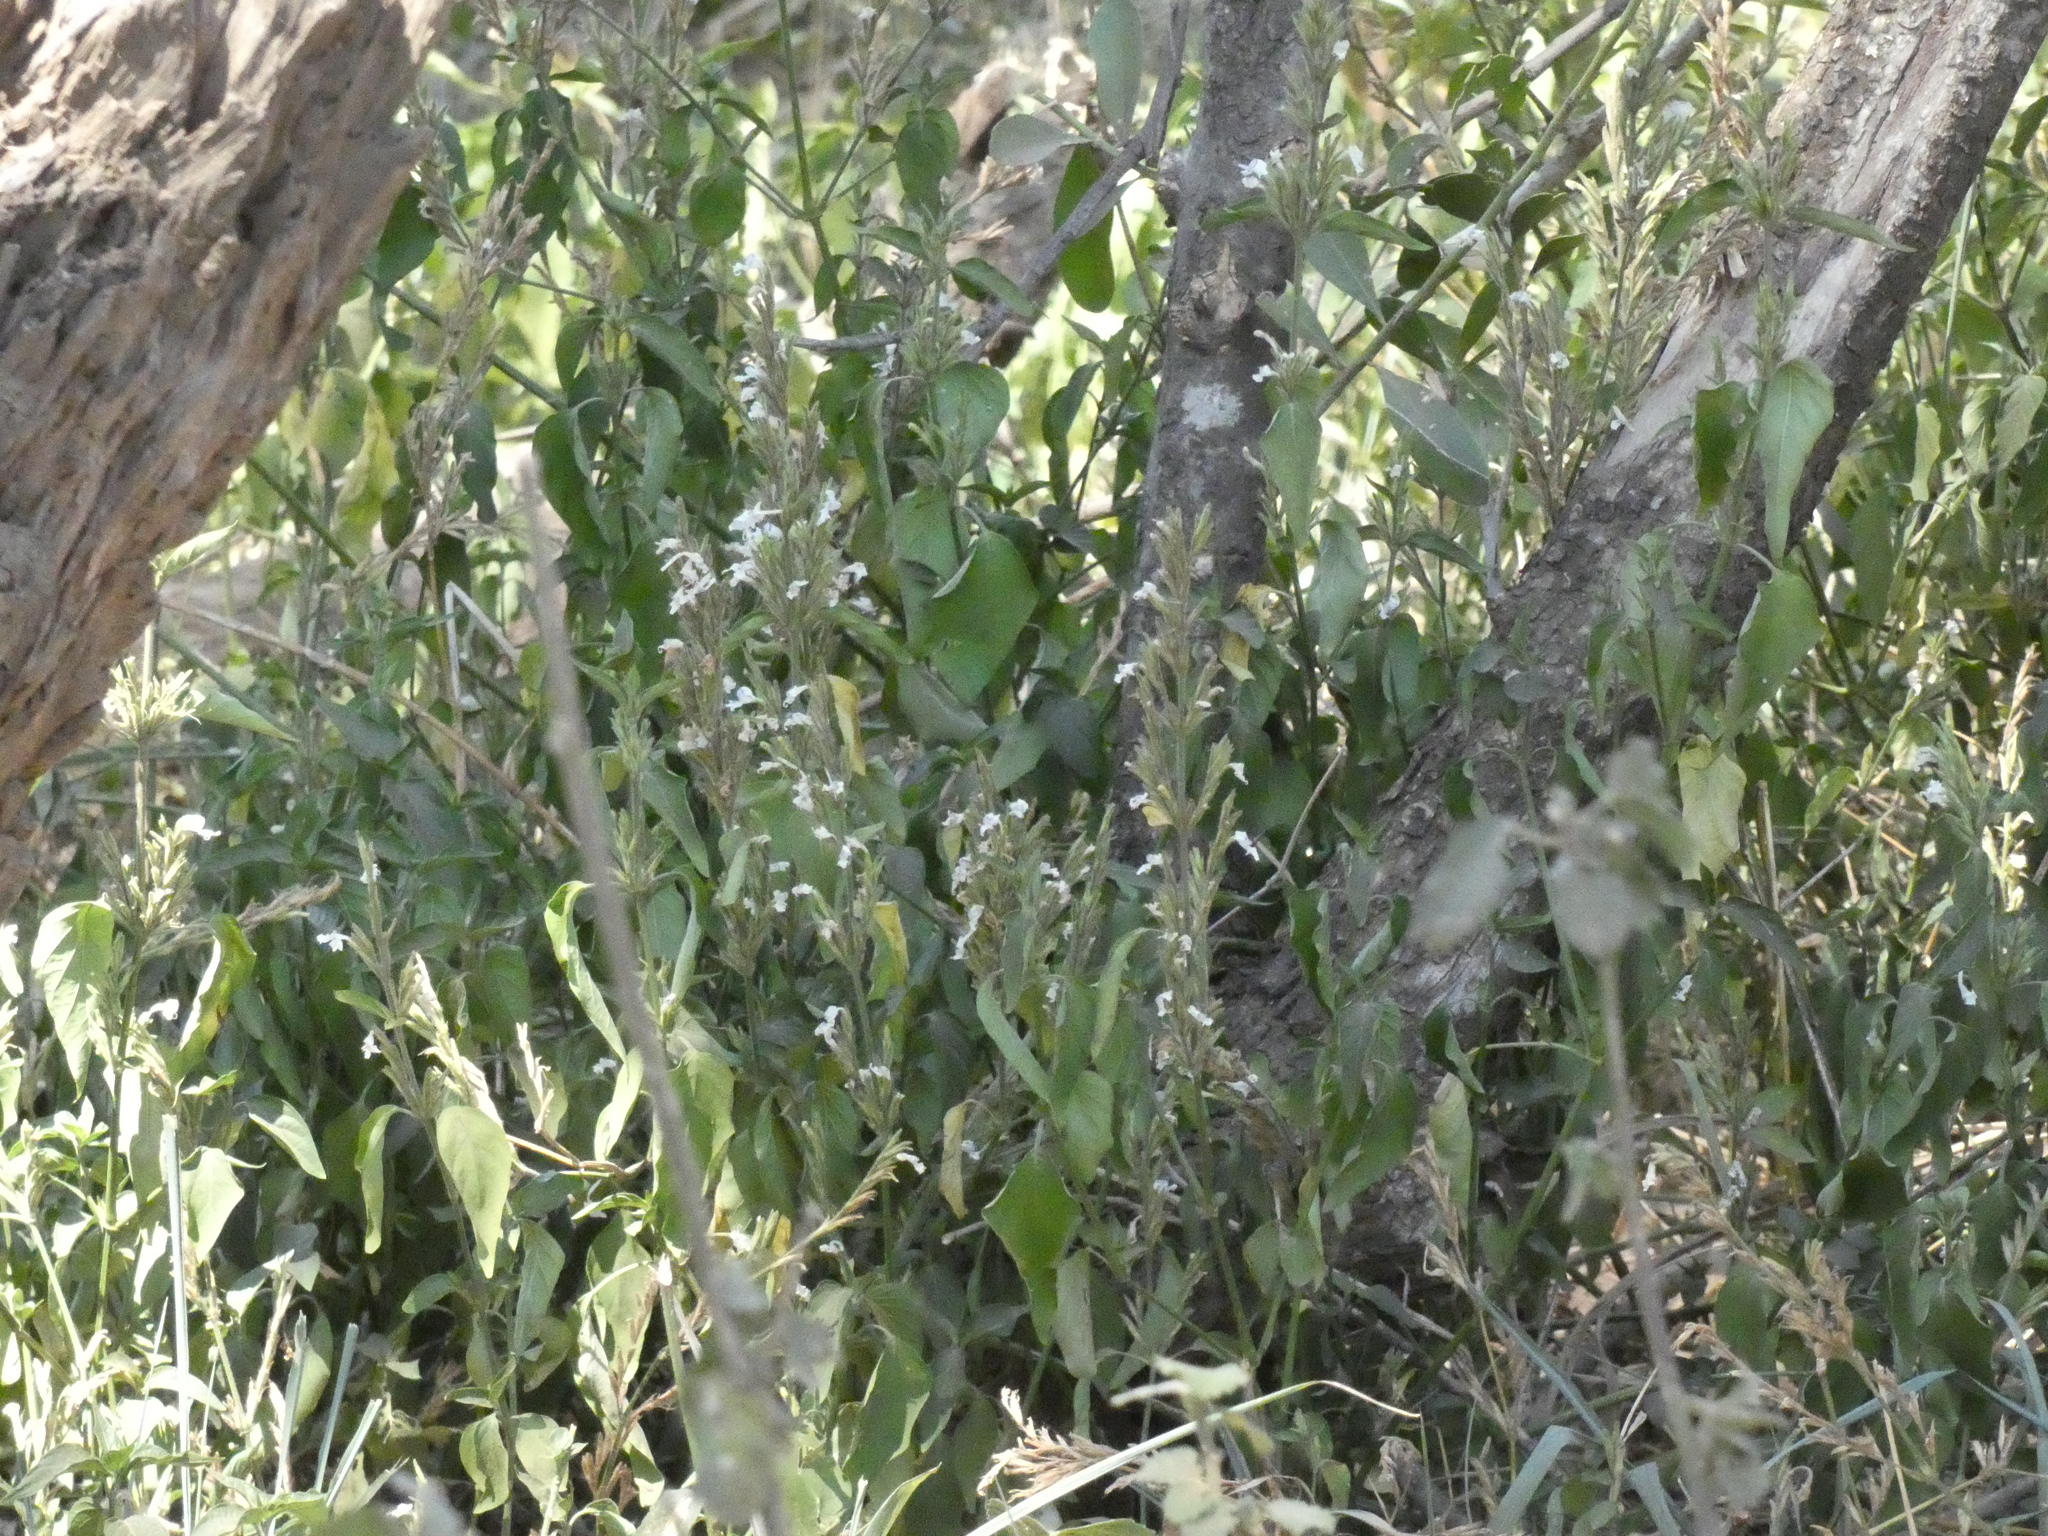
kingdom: Plantae
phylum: Tracheophyta
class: Magnoliopsida
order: Lamiales
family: Acanthaceae
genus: Hypoestes
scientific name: Hypoestes forskaolii
